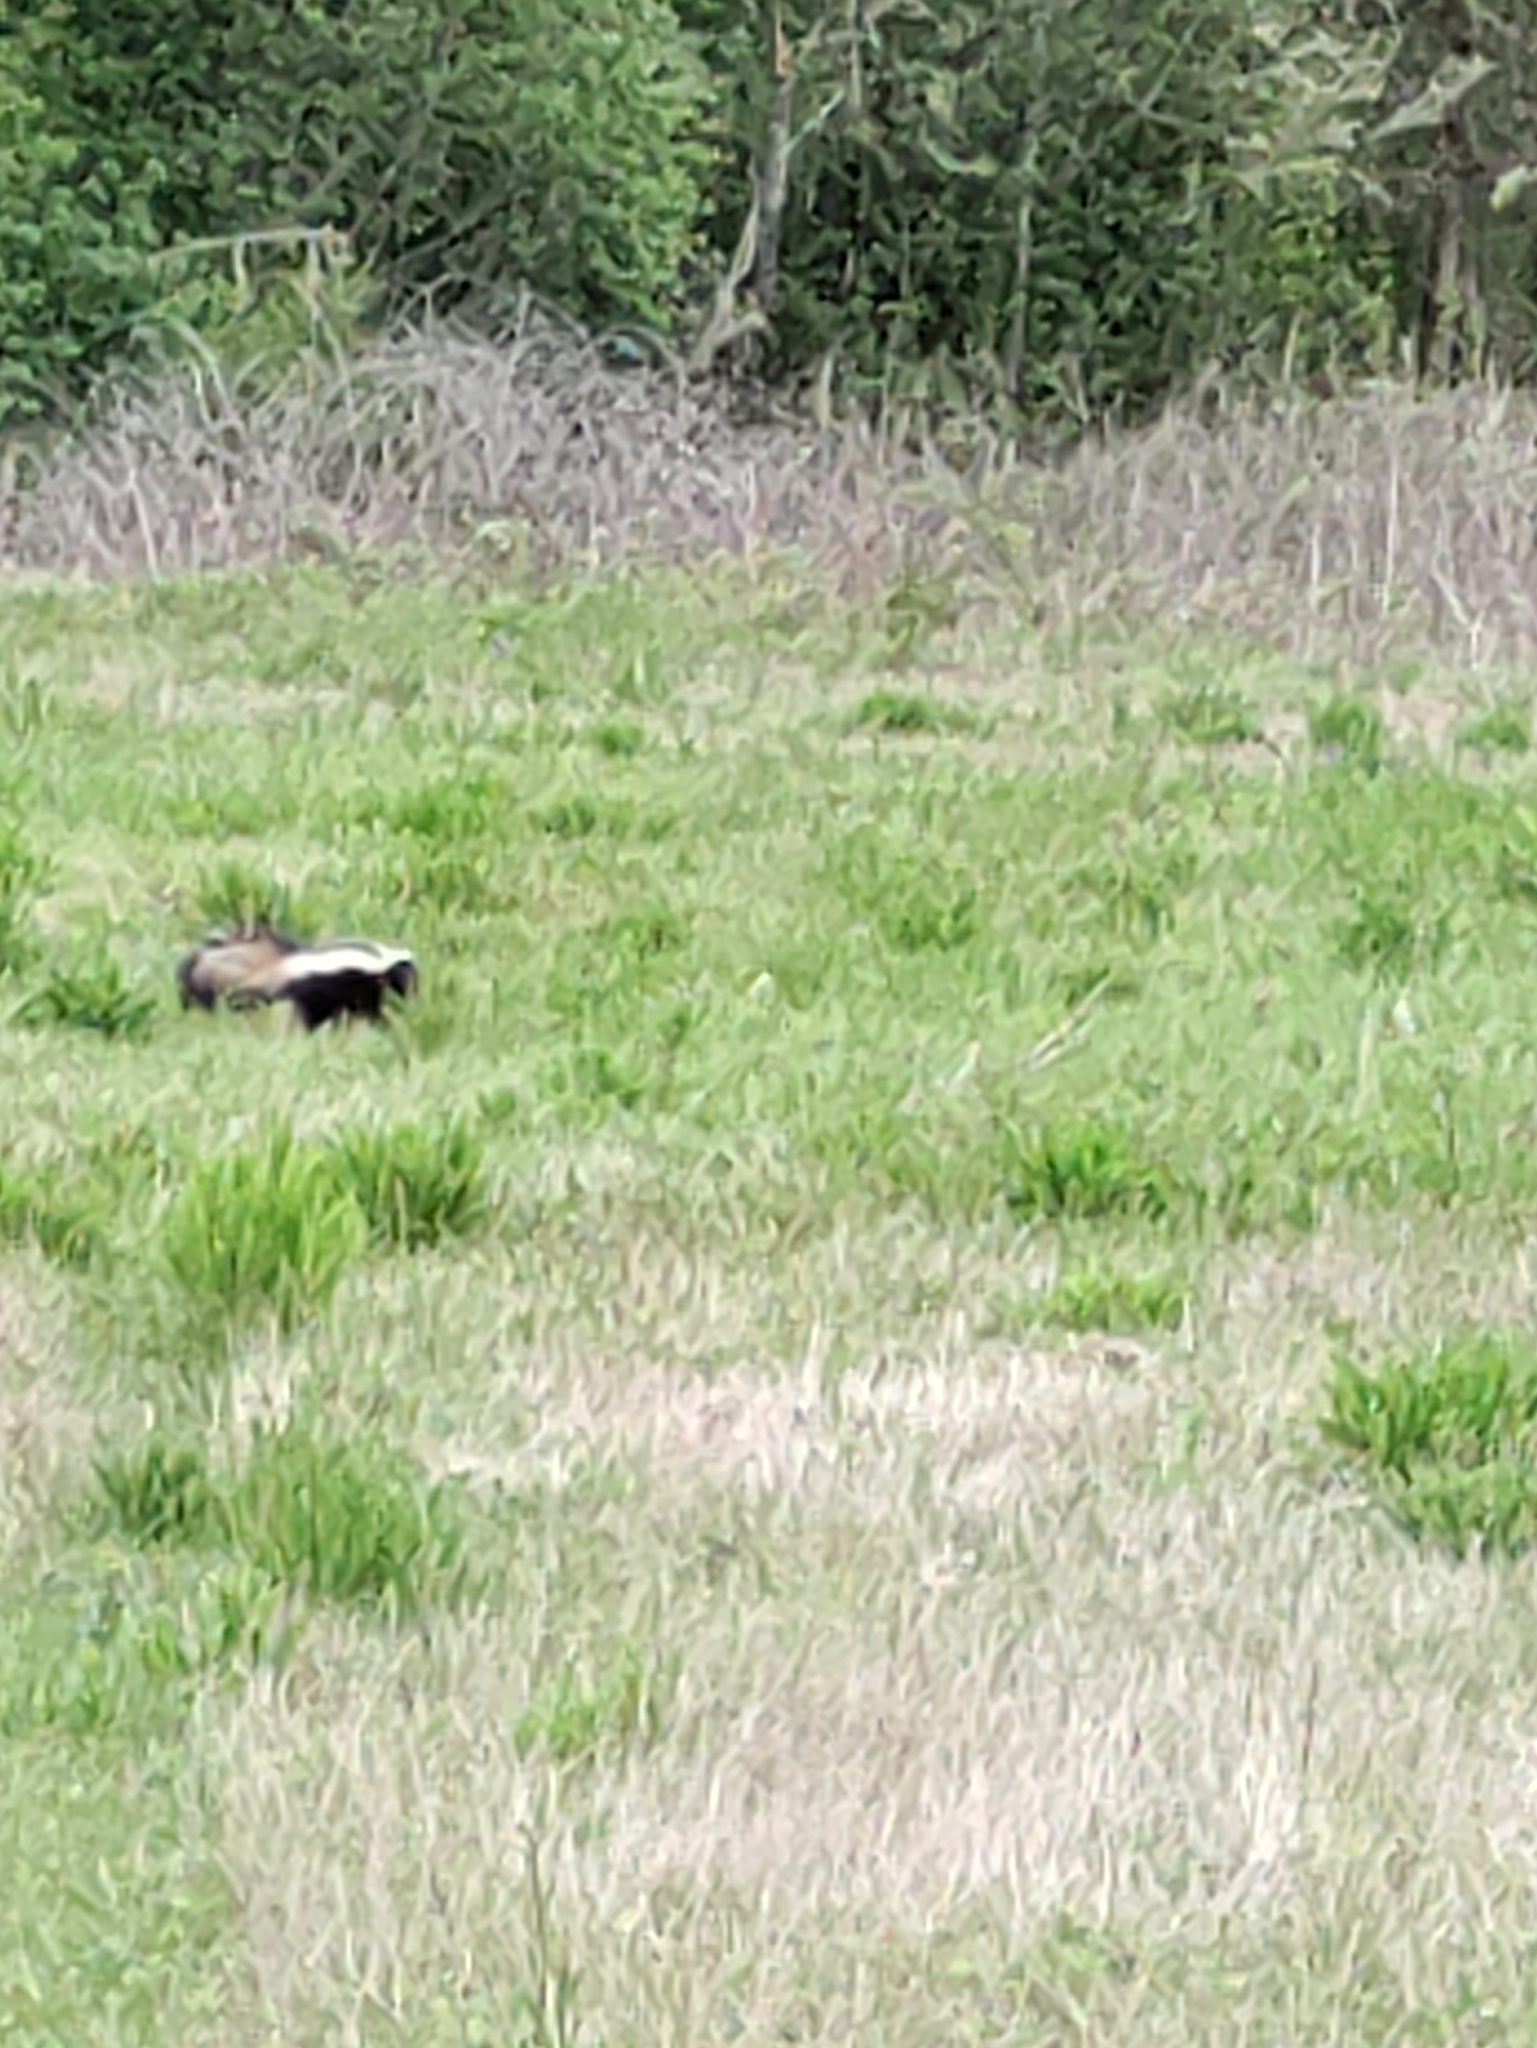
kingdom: Animalia
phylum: Chordata
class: Mammalia
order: Carnivora
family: Mephitidae
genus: Mephitis
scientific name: Mephitis mephitis
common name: Striped skunk
